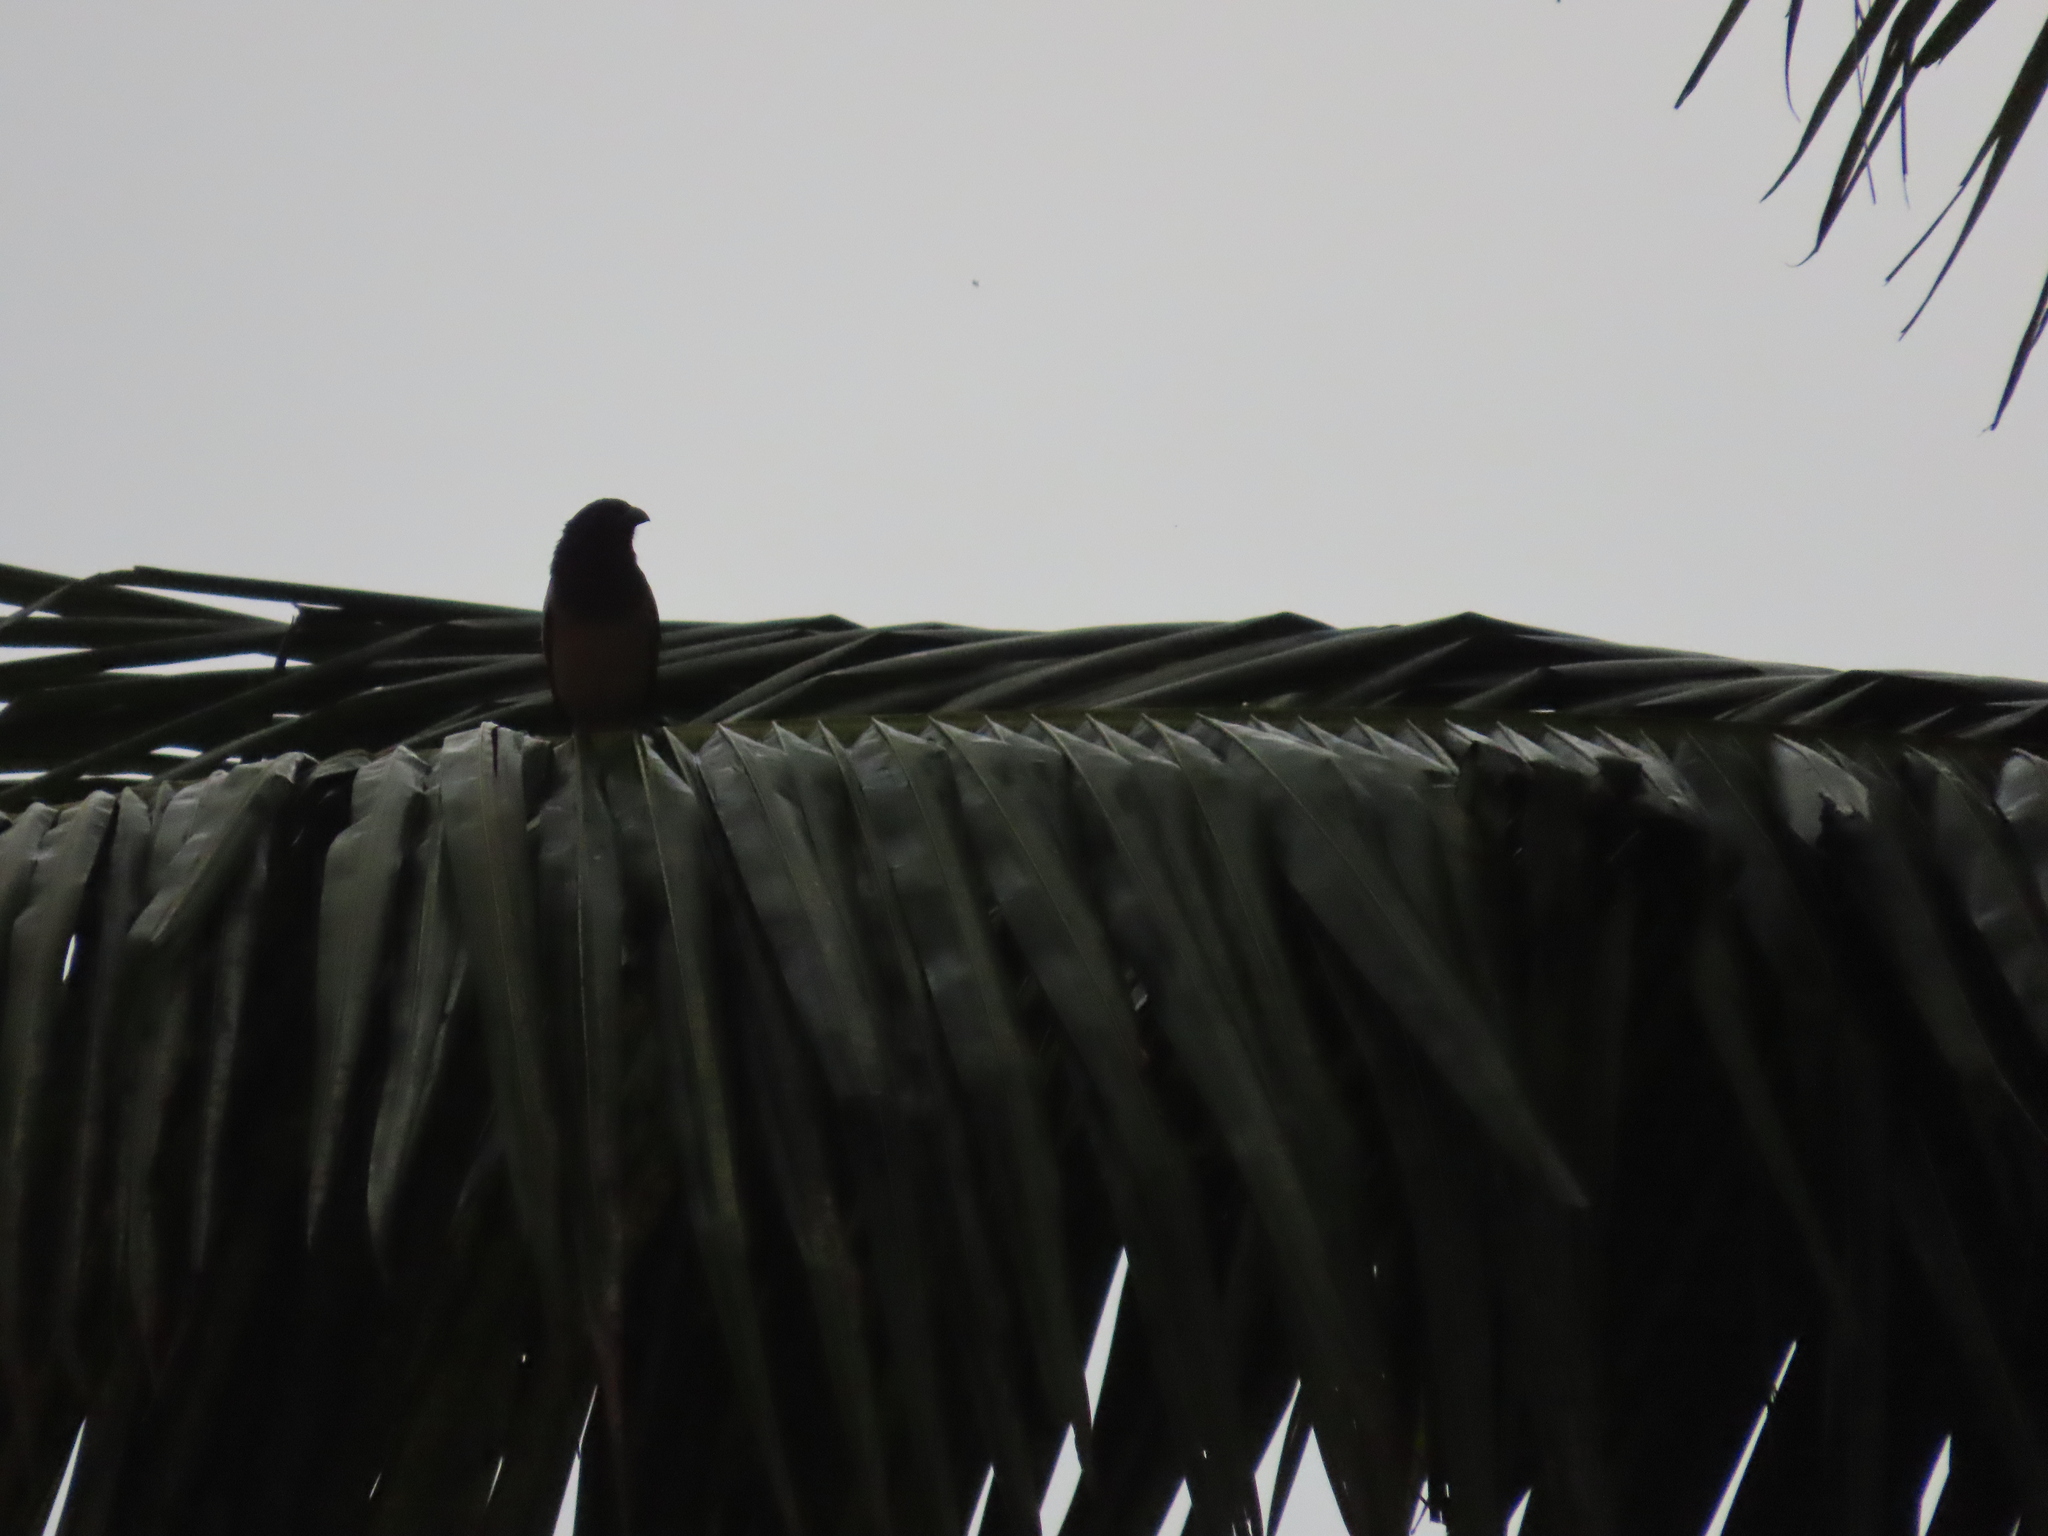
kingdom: Animalia
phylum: Chordata
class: Aves
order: Passeriformes
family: Corvidae
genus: Dendrocitta
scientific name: Dendrocitta vagabunda
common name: Rufous treepie
